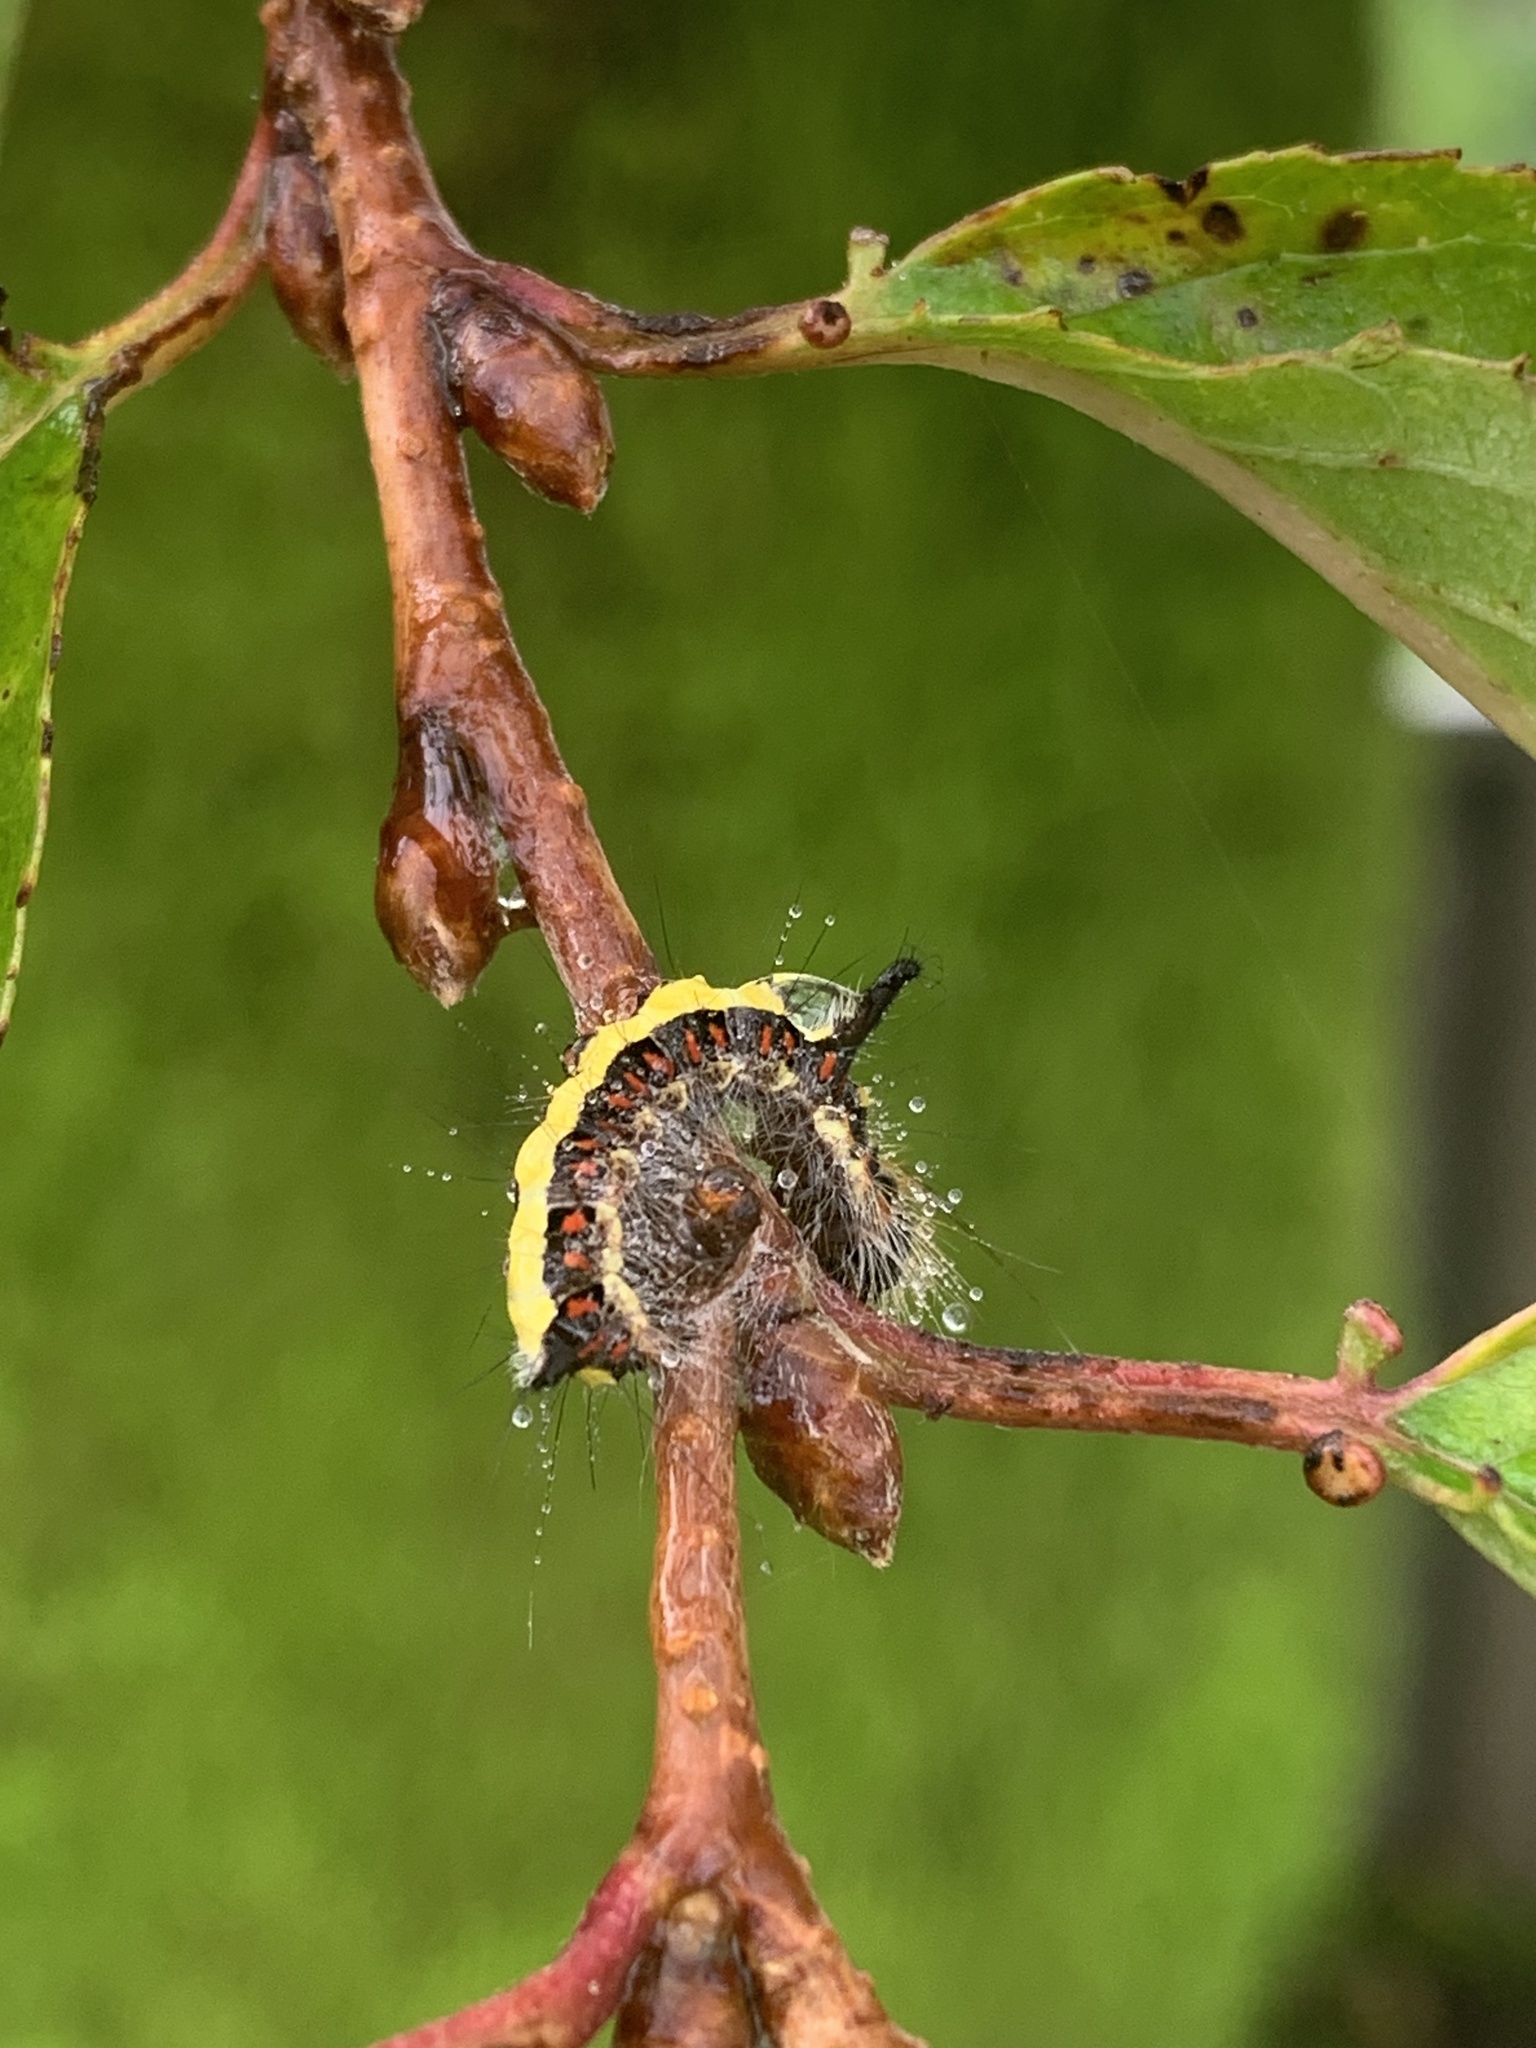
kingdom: Animalia
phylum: Arthropoda
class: Insecta
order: Lepidoptera
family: Noctuidae
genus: Acronicta
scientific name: Acronicta psi
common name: Grey dagger
